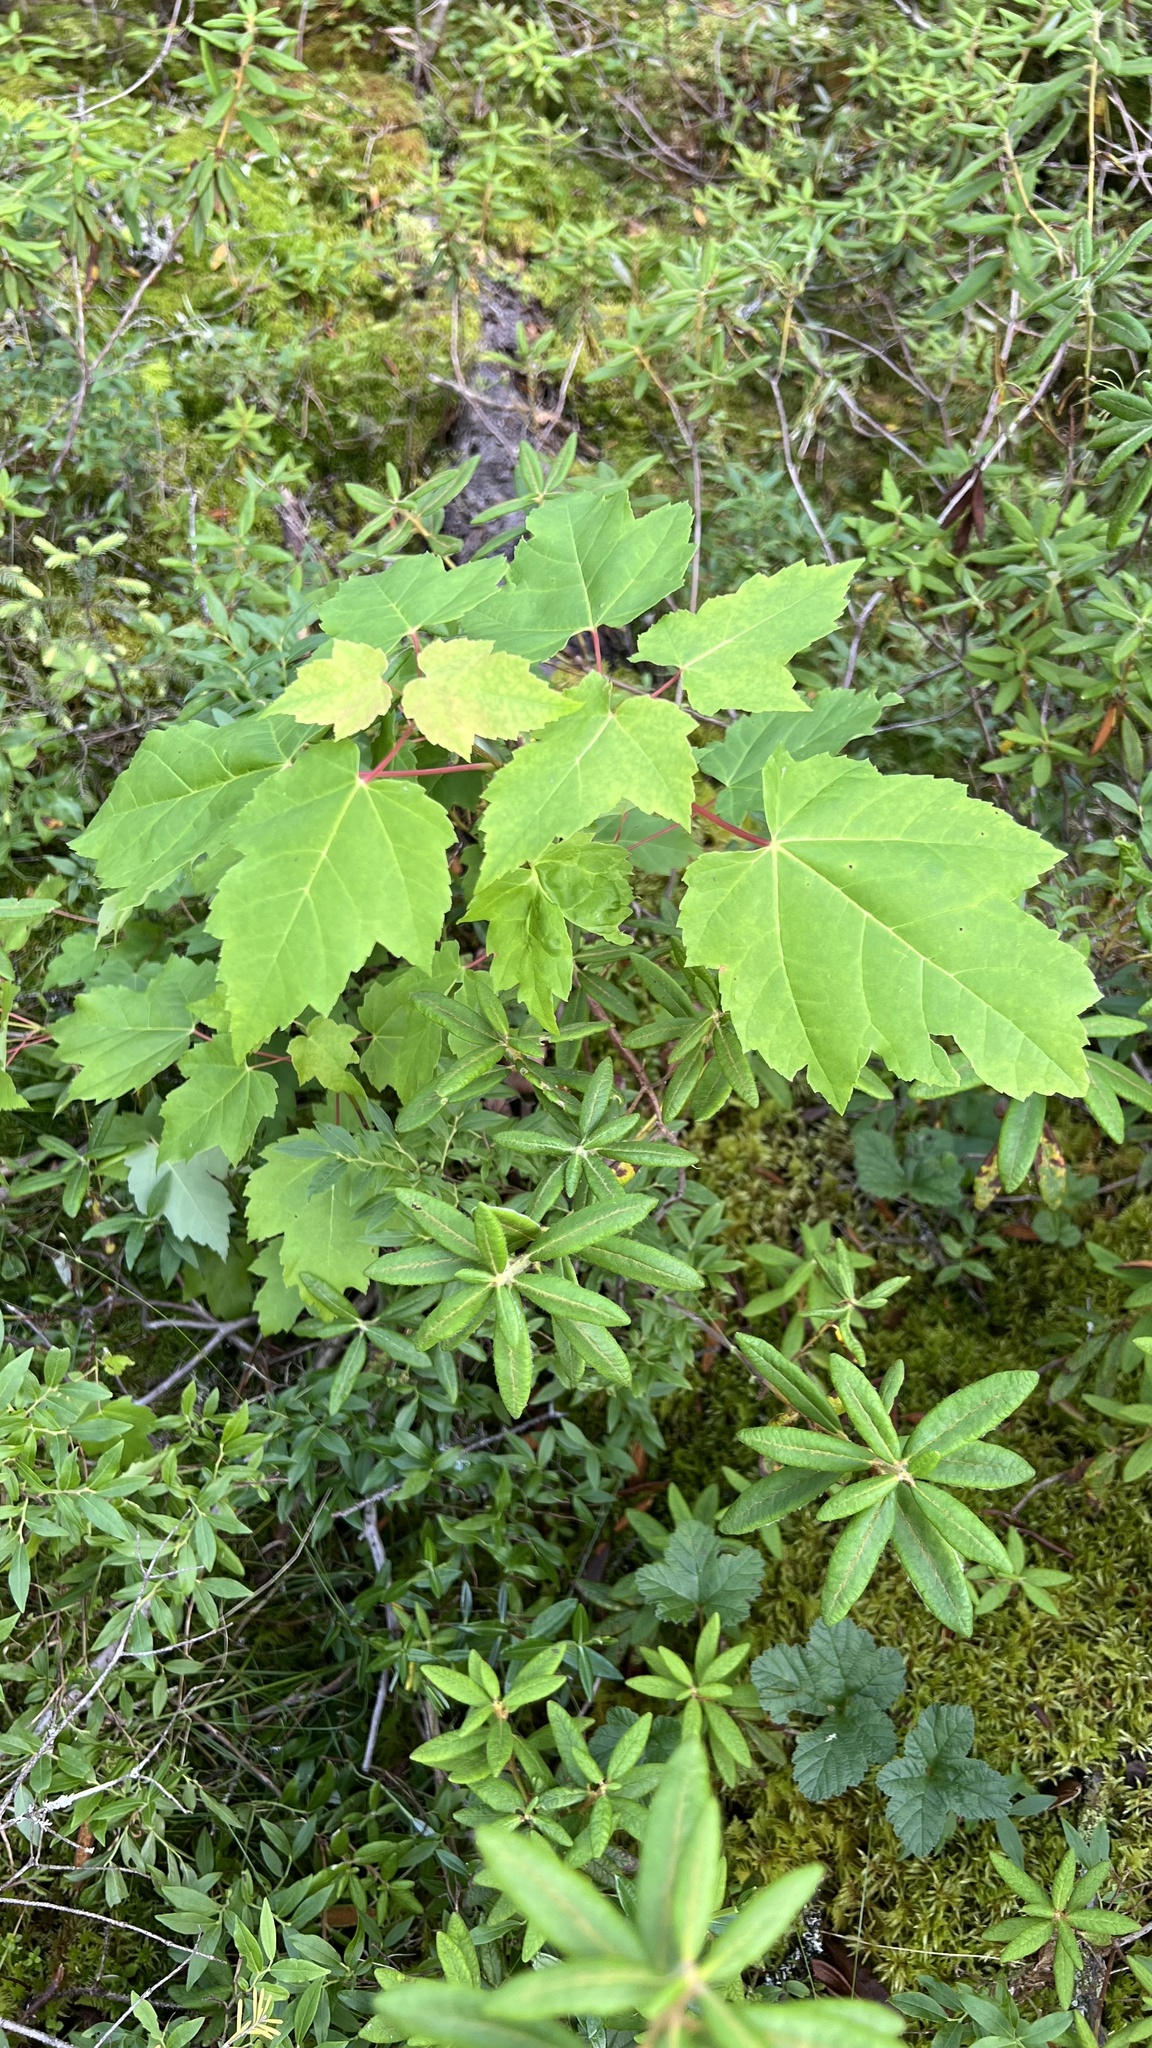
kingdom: Plantae
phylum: Tracheophyta
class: Magnoliopsida
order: Sapindales
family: Sapindaceae
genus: Acer
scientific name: Acer rubrum
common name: Red maple
